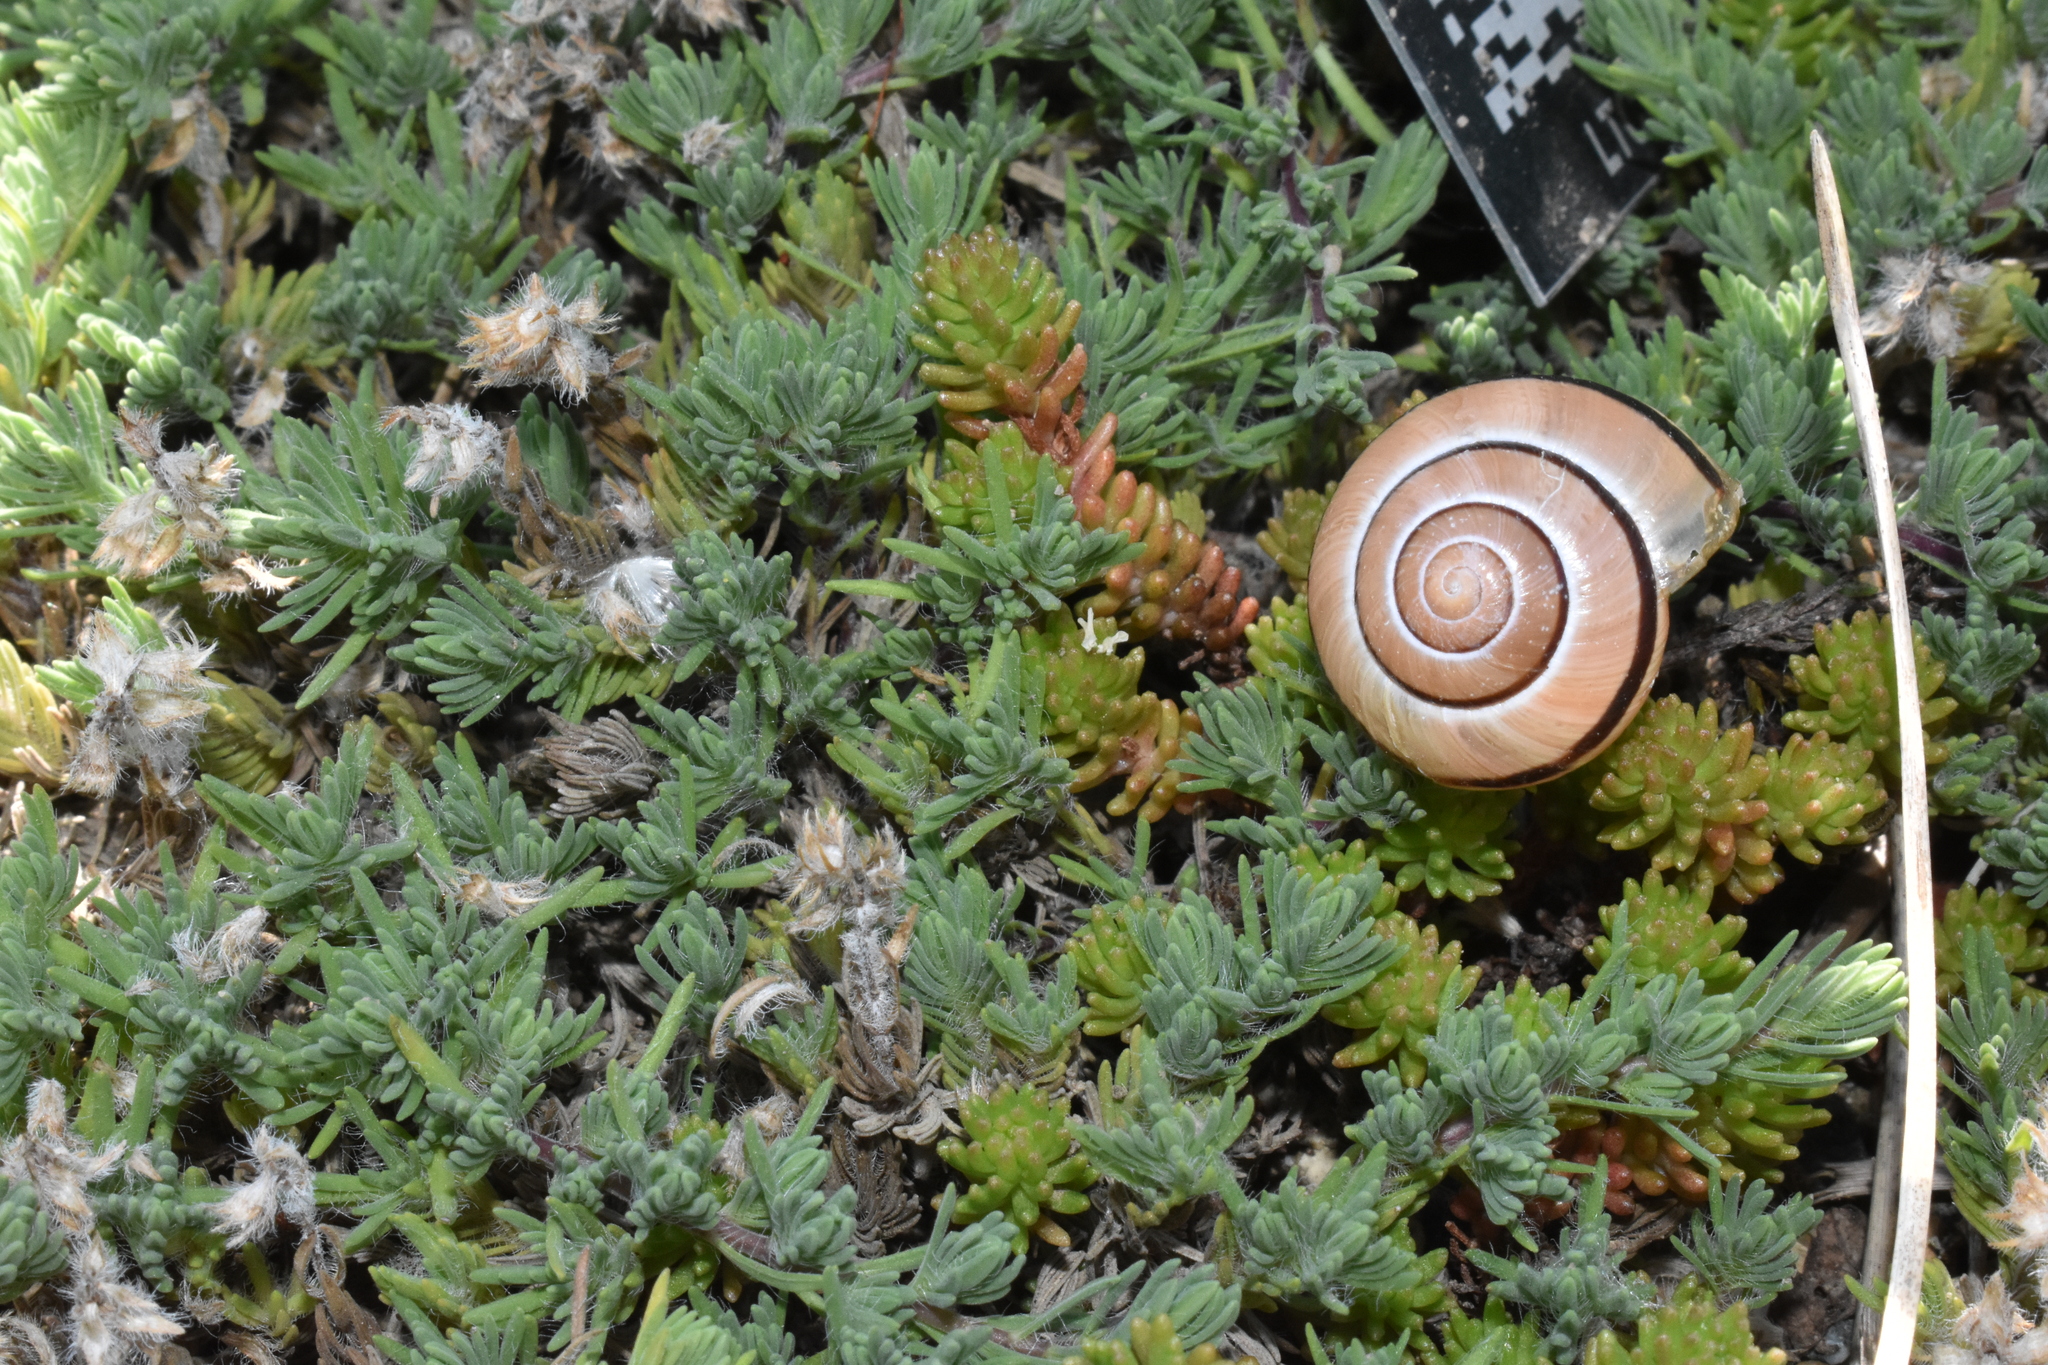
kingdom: Animalia
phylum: Mollusca
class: Gastropoda
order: Stylommatophora
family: Helicidae
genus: Cepaea
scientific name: Cepaea nemoralis
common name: Grovesnail
